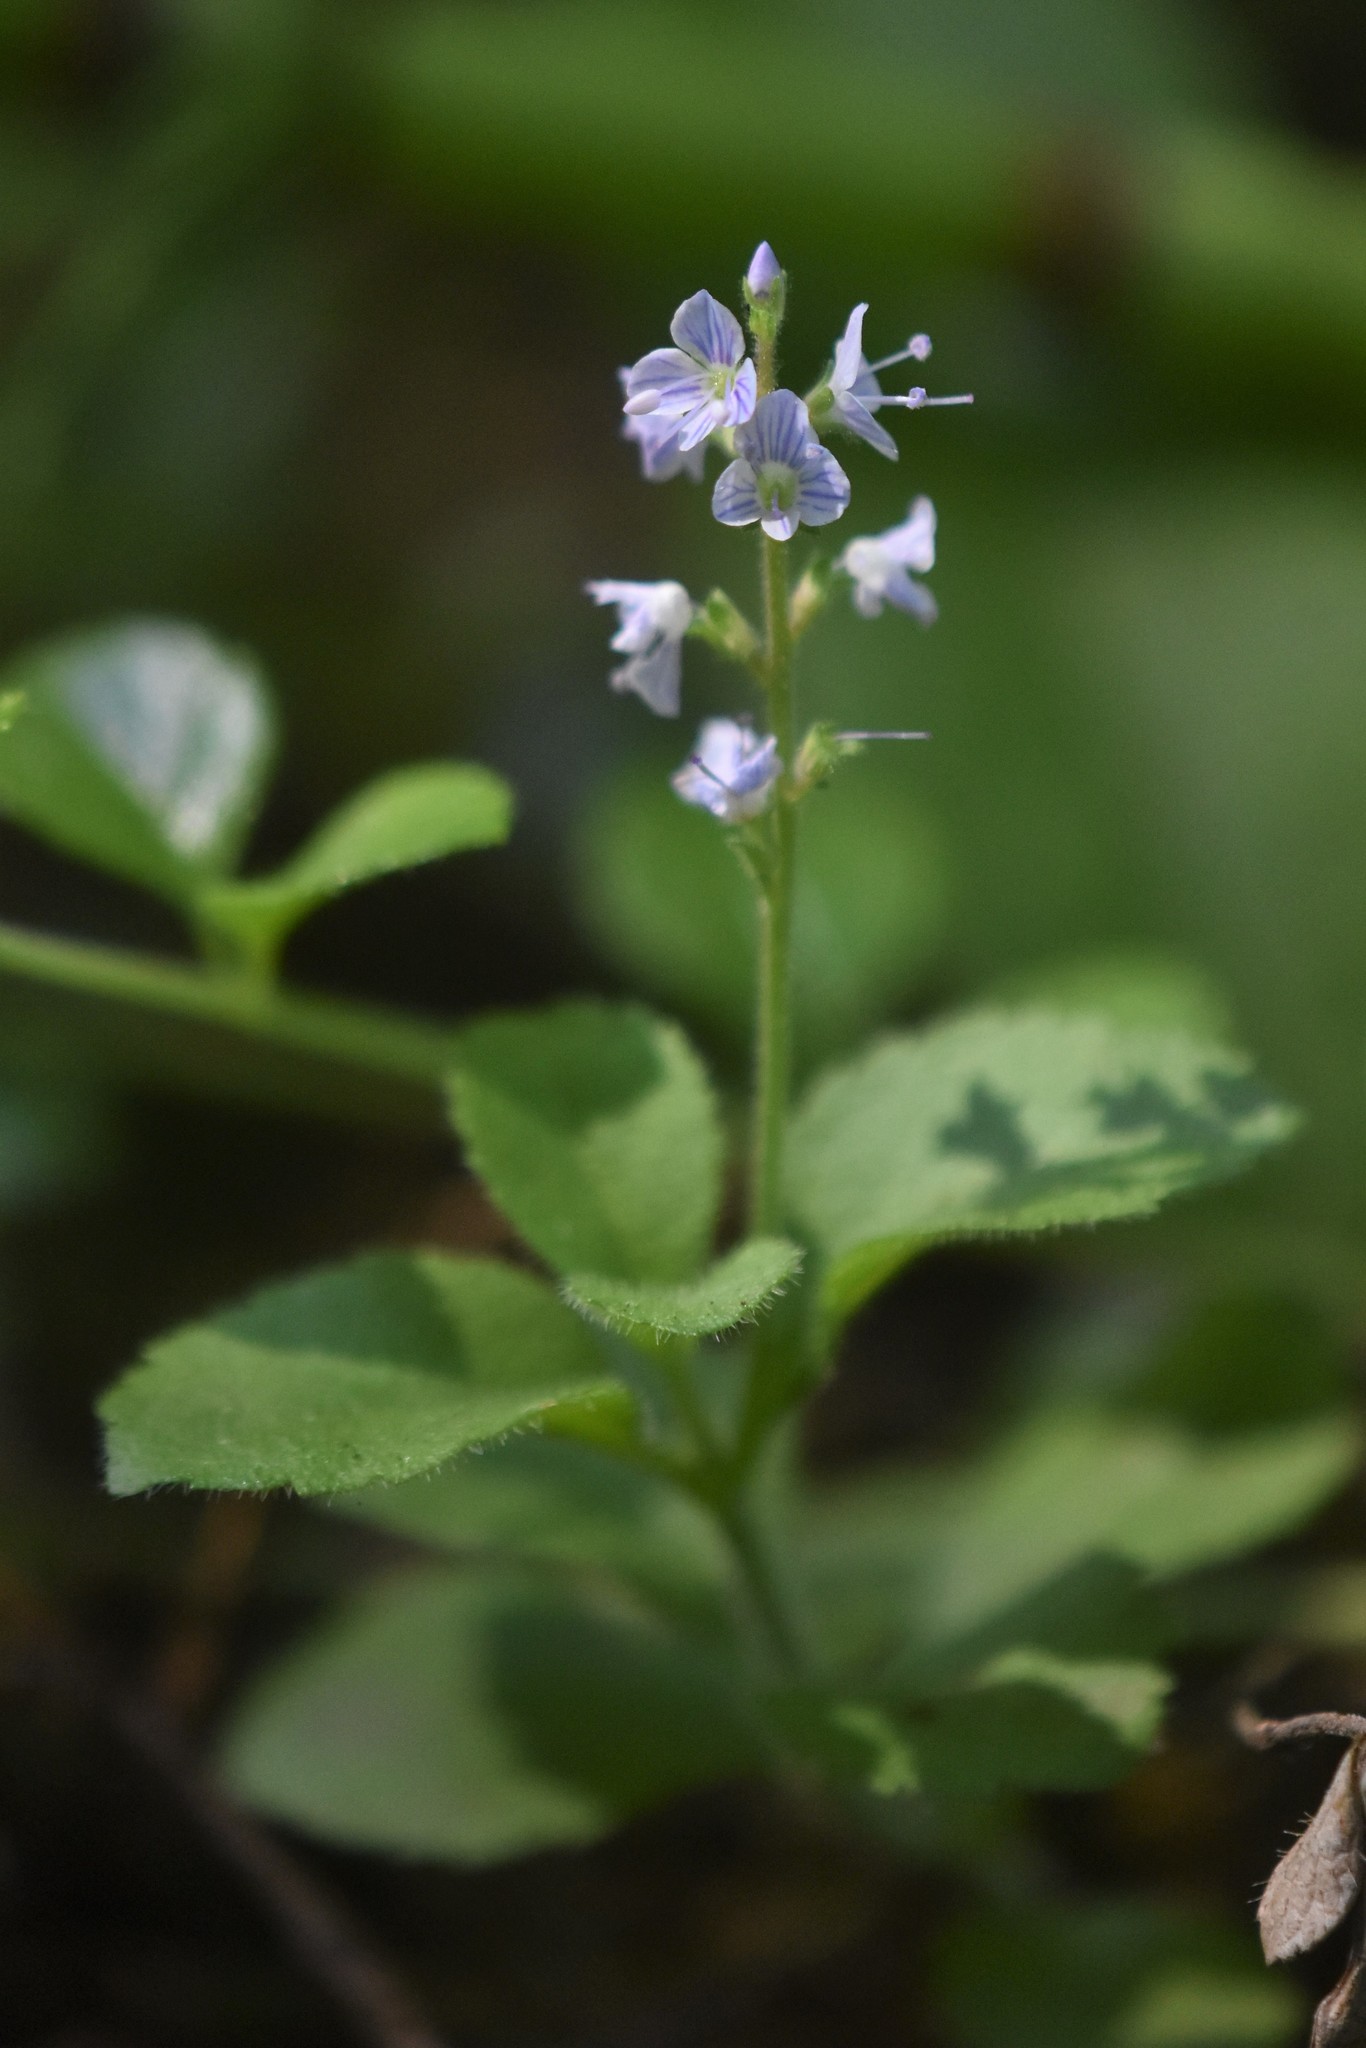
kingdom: Plantae
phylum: Tracheophyta
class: Magnoliopsida
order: Lamiales
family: Plantaginaceae
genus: Veronica
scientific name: Veronica officinalis
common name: Common speedwell
